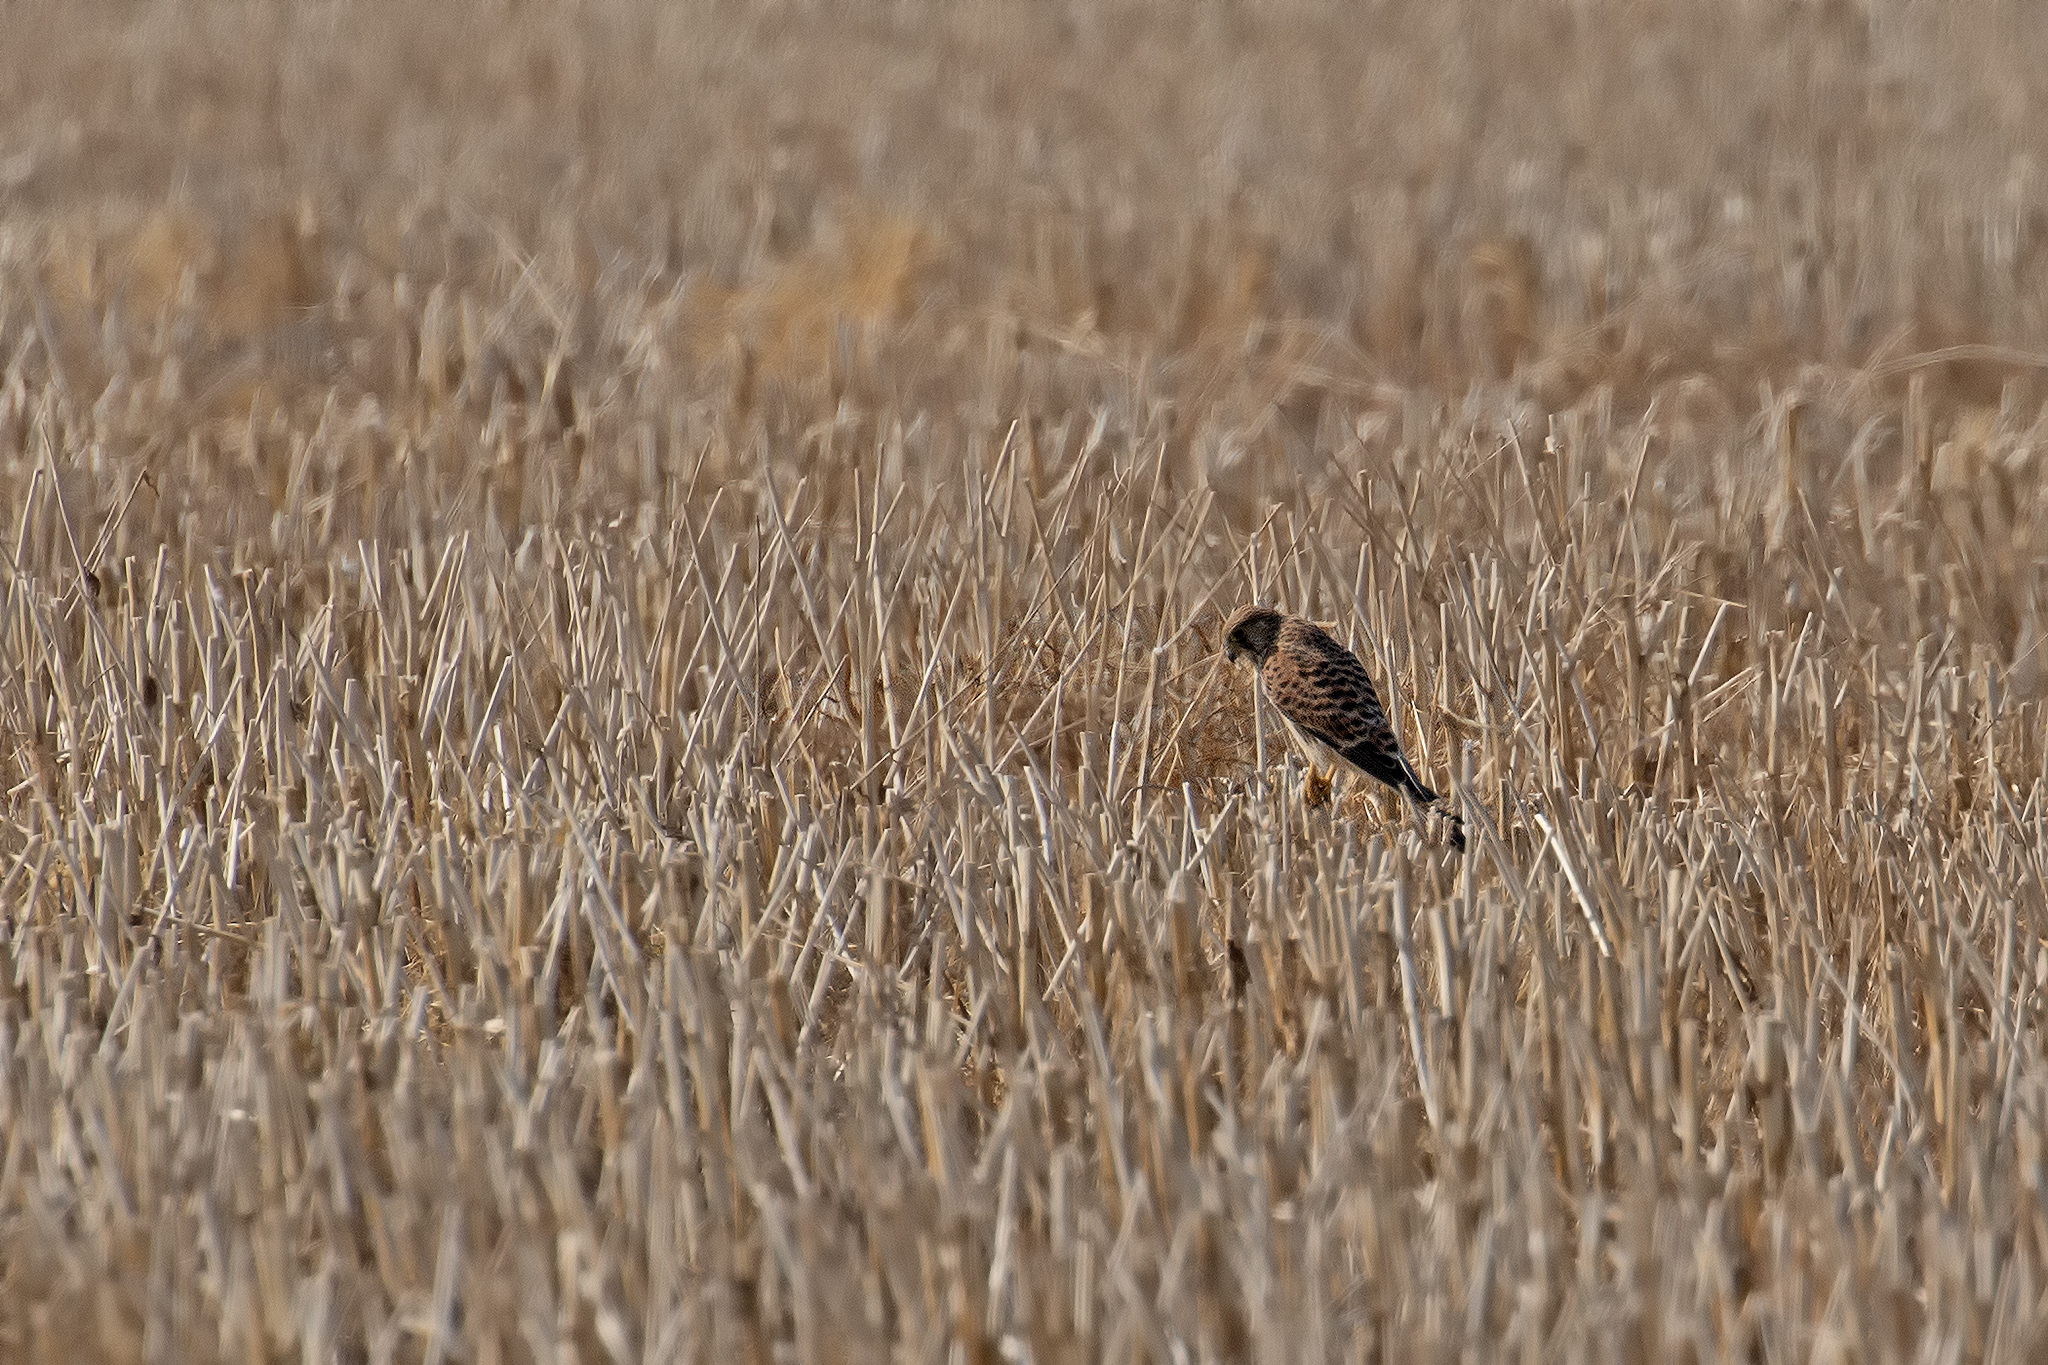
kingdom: Animalia
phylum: Chordata
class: Aves
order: Falconiformes
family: Falconidae
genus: Falco
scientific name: Falco tinnunculus
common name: Common kestrel
